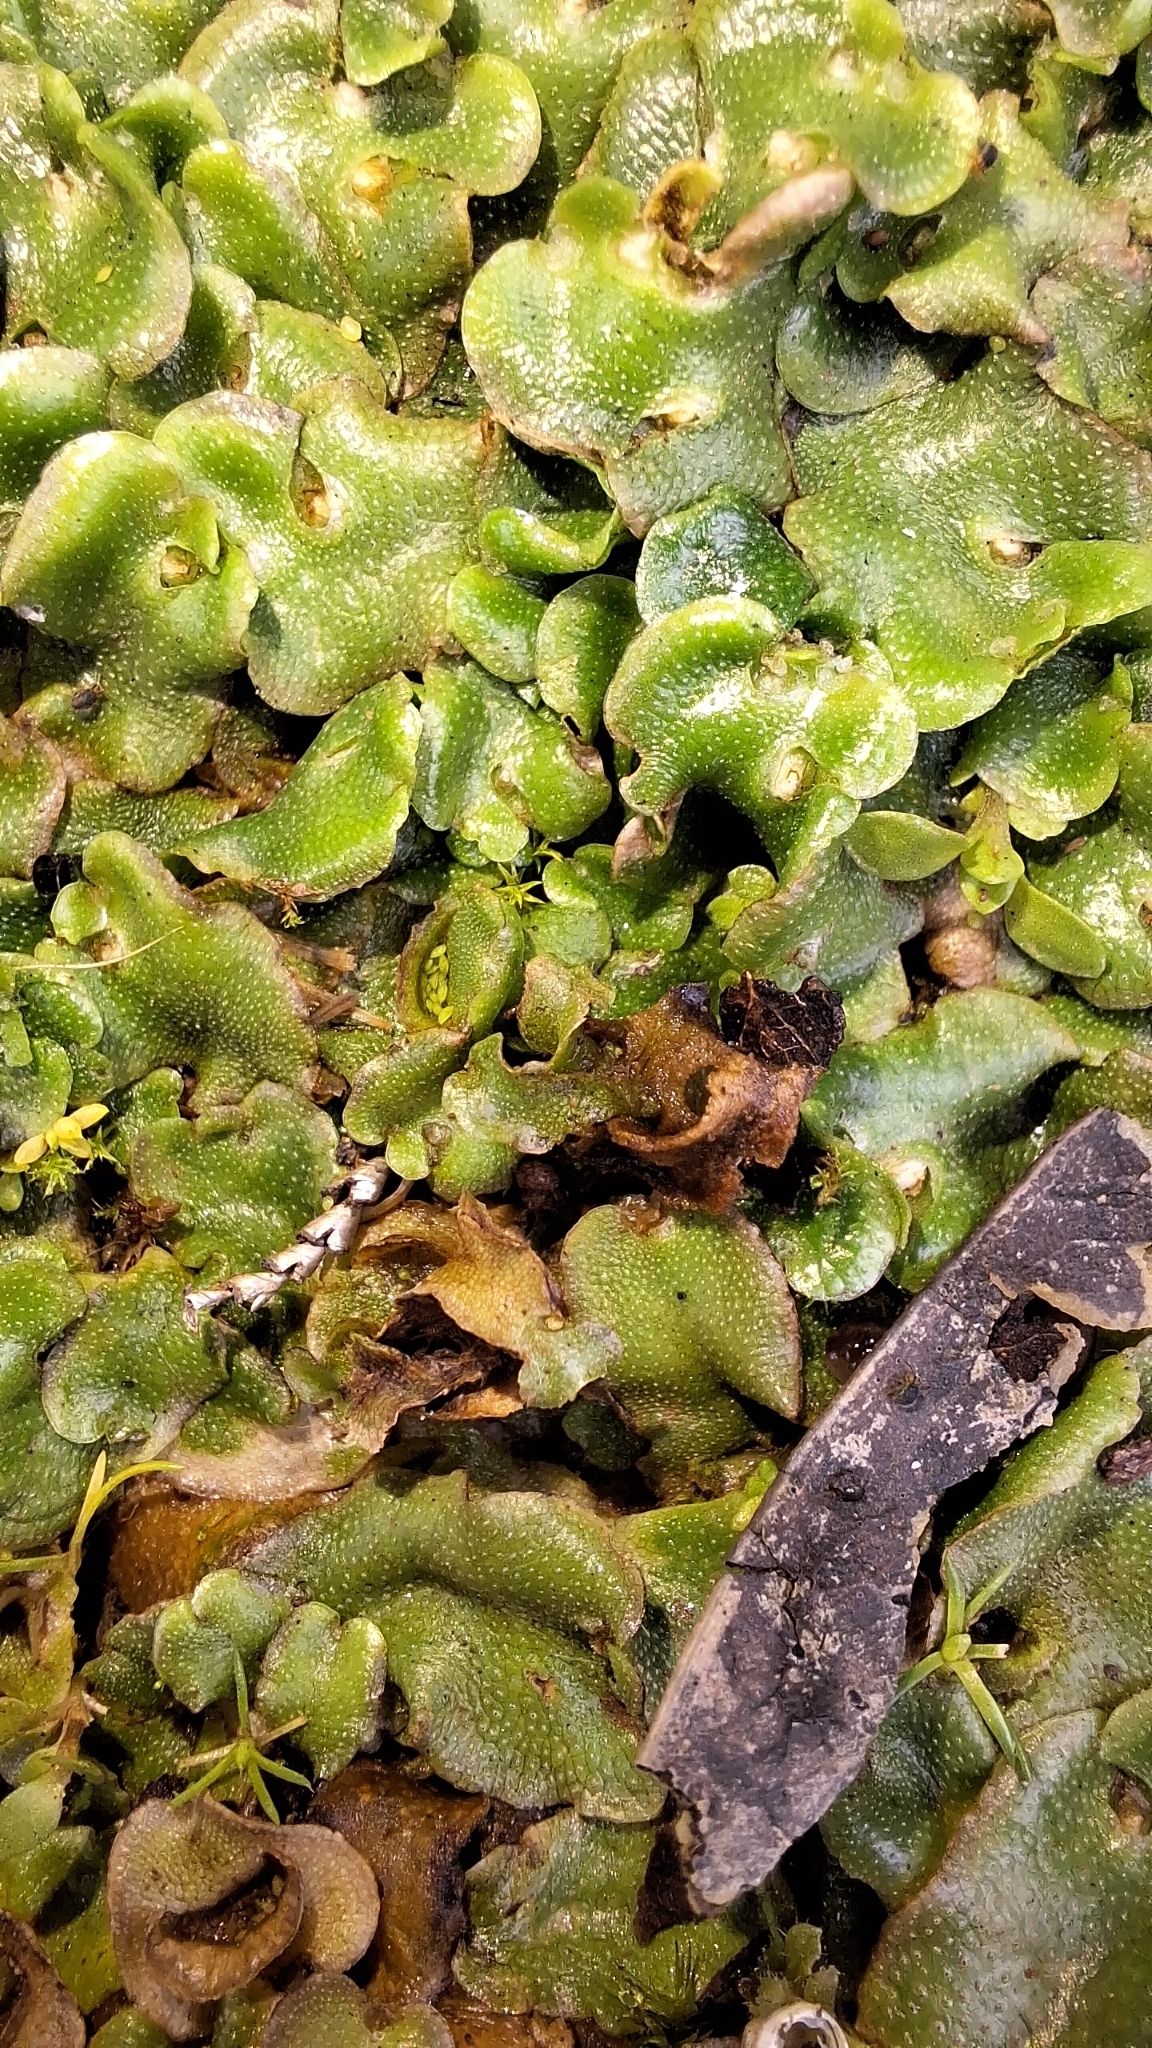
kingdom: Plantae
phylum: Marchantiophyta
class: Marchantiopsida
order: Lunulariales
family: Lunulariaceae
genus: Lunularia
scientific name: Lunularia cruciata
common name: Crescent-cup liverwort
